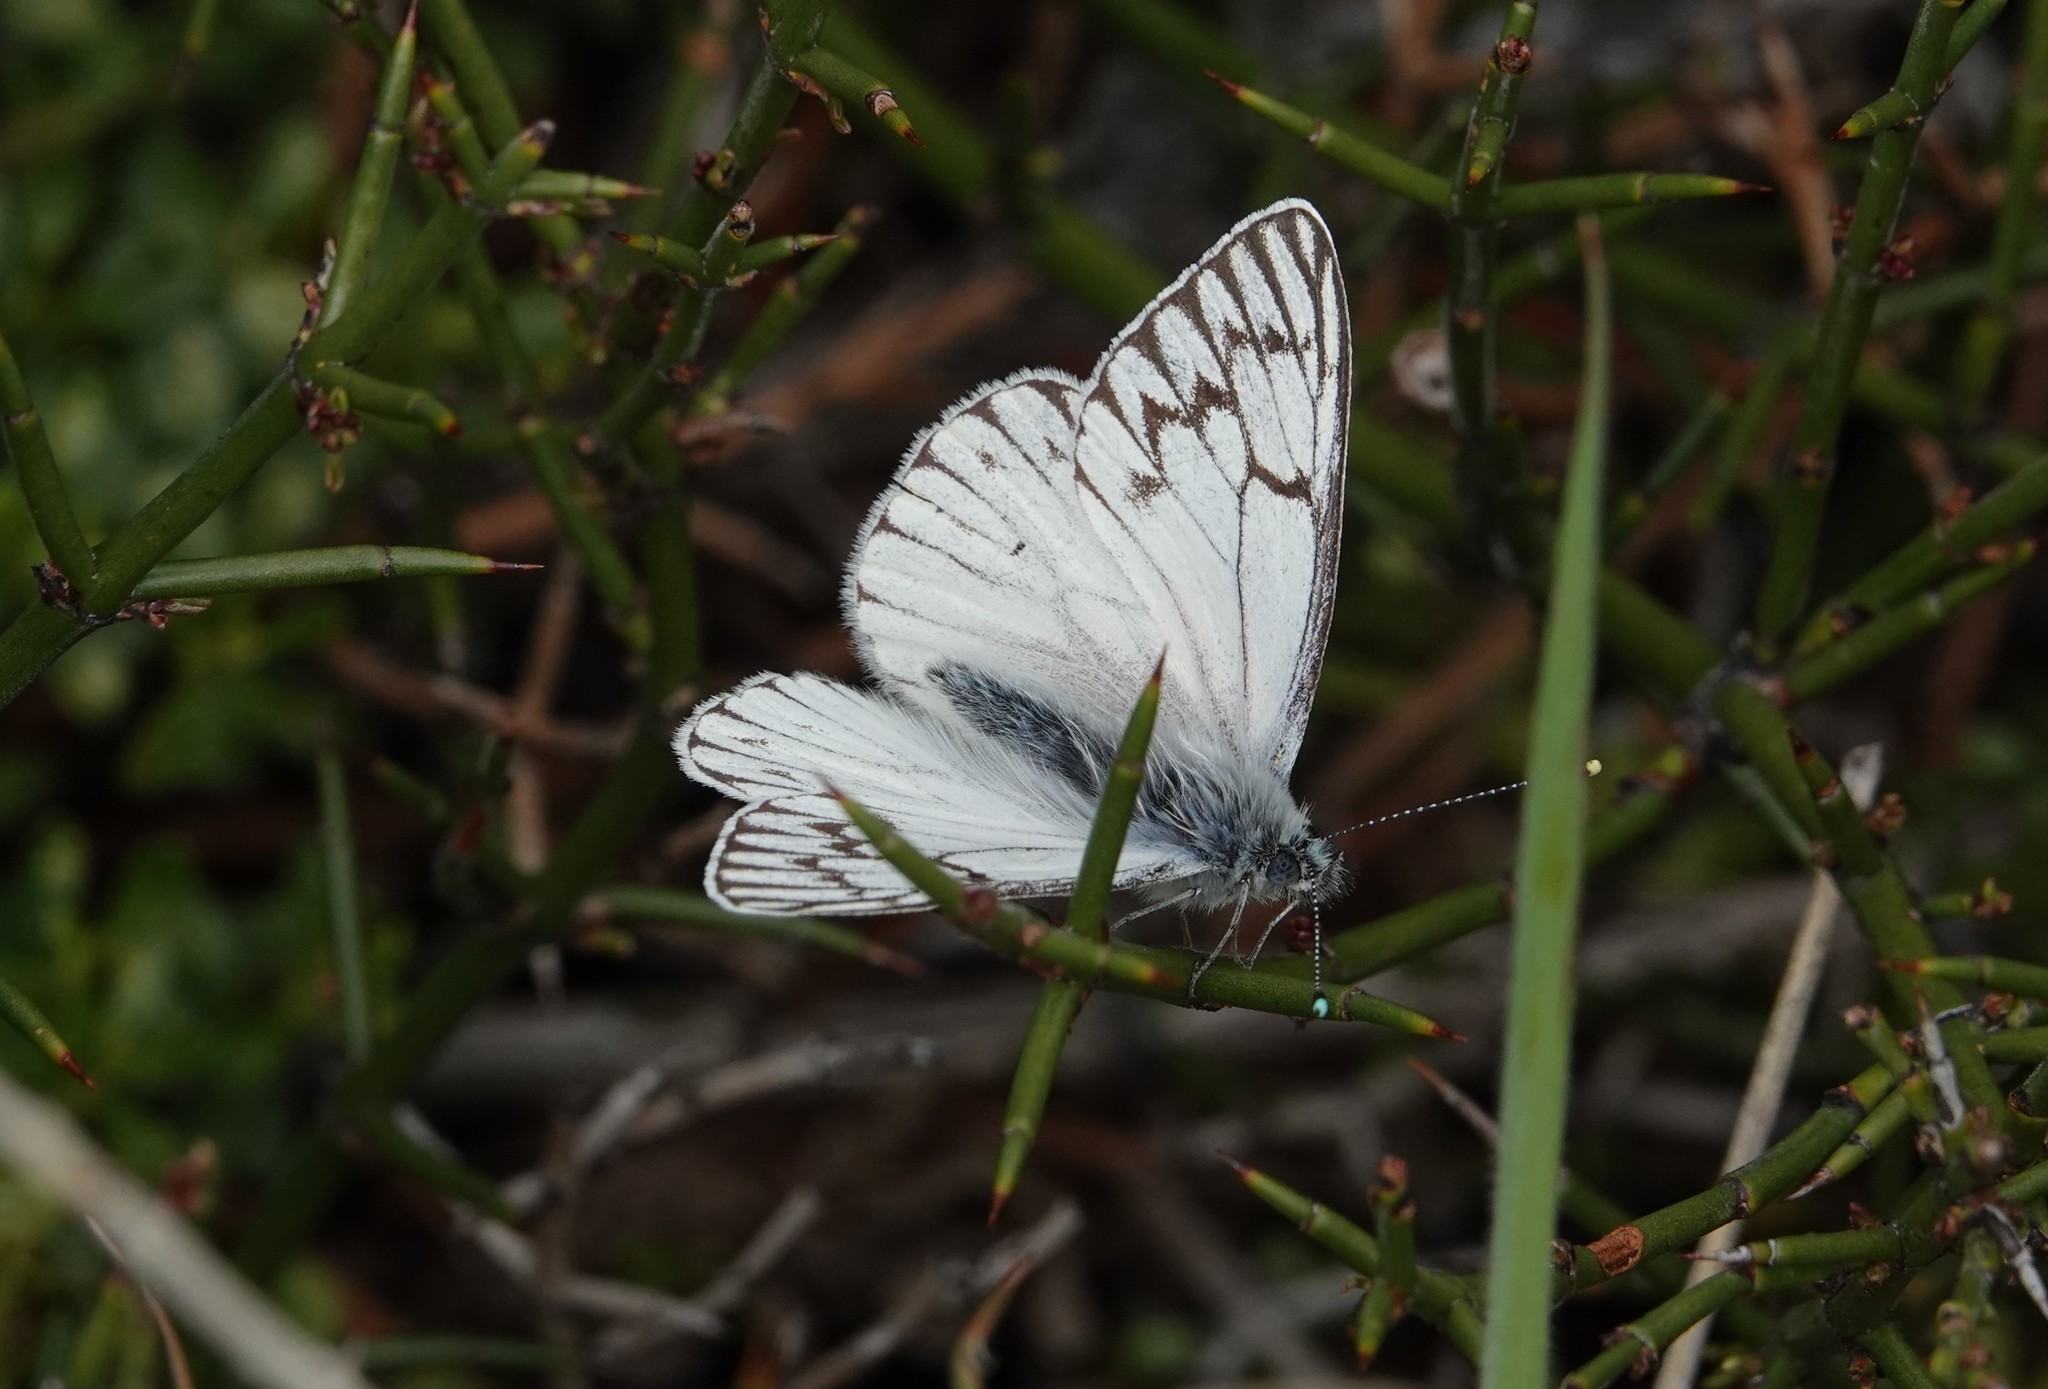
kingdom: Animalia
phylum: Arthropoda
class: Insecta
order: Lepidoptera
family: Pieridae
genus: Tatochila
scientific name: Tatochila theodice
